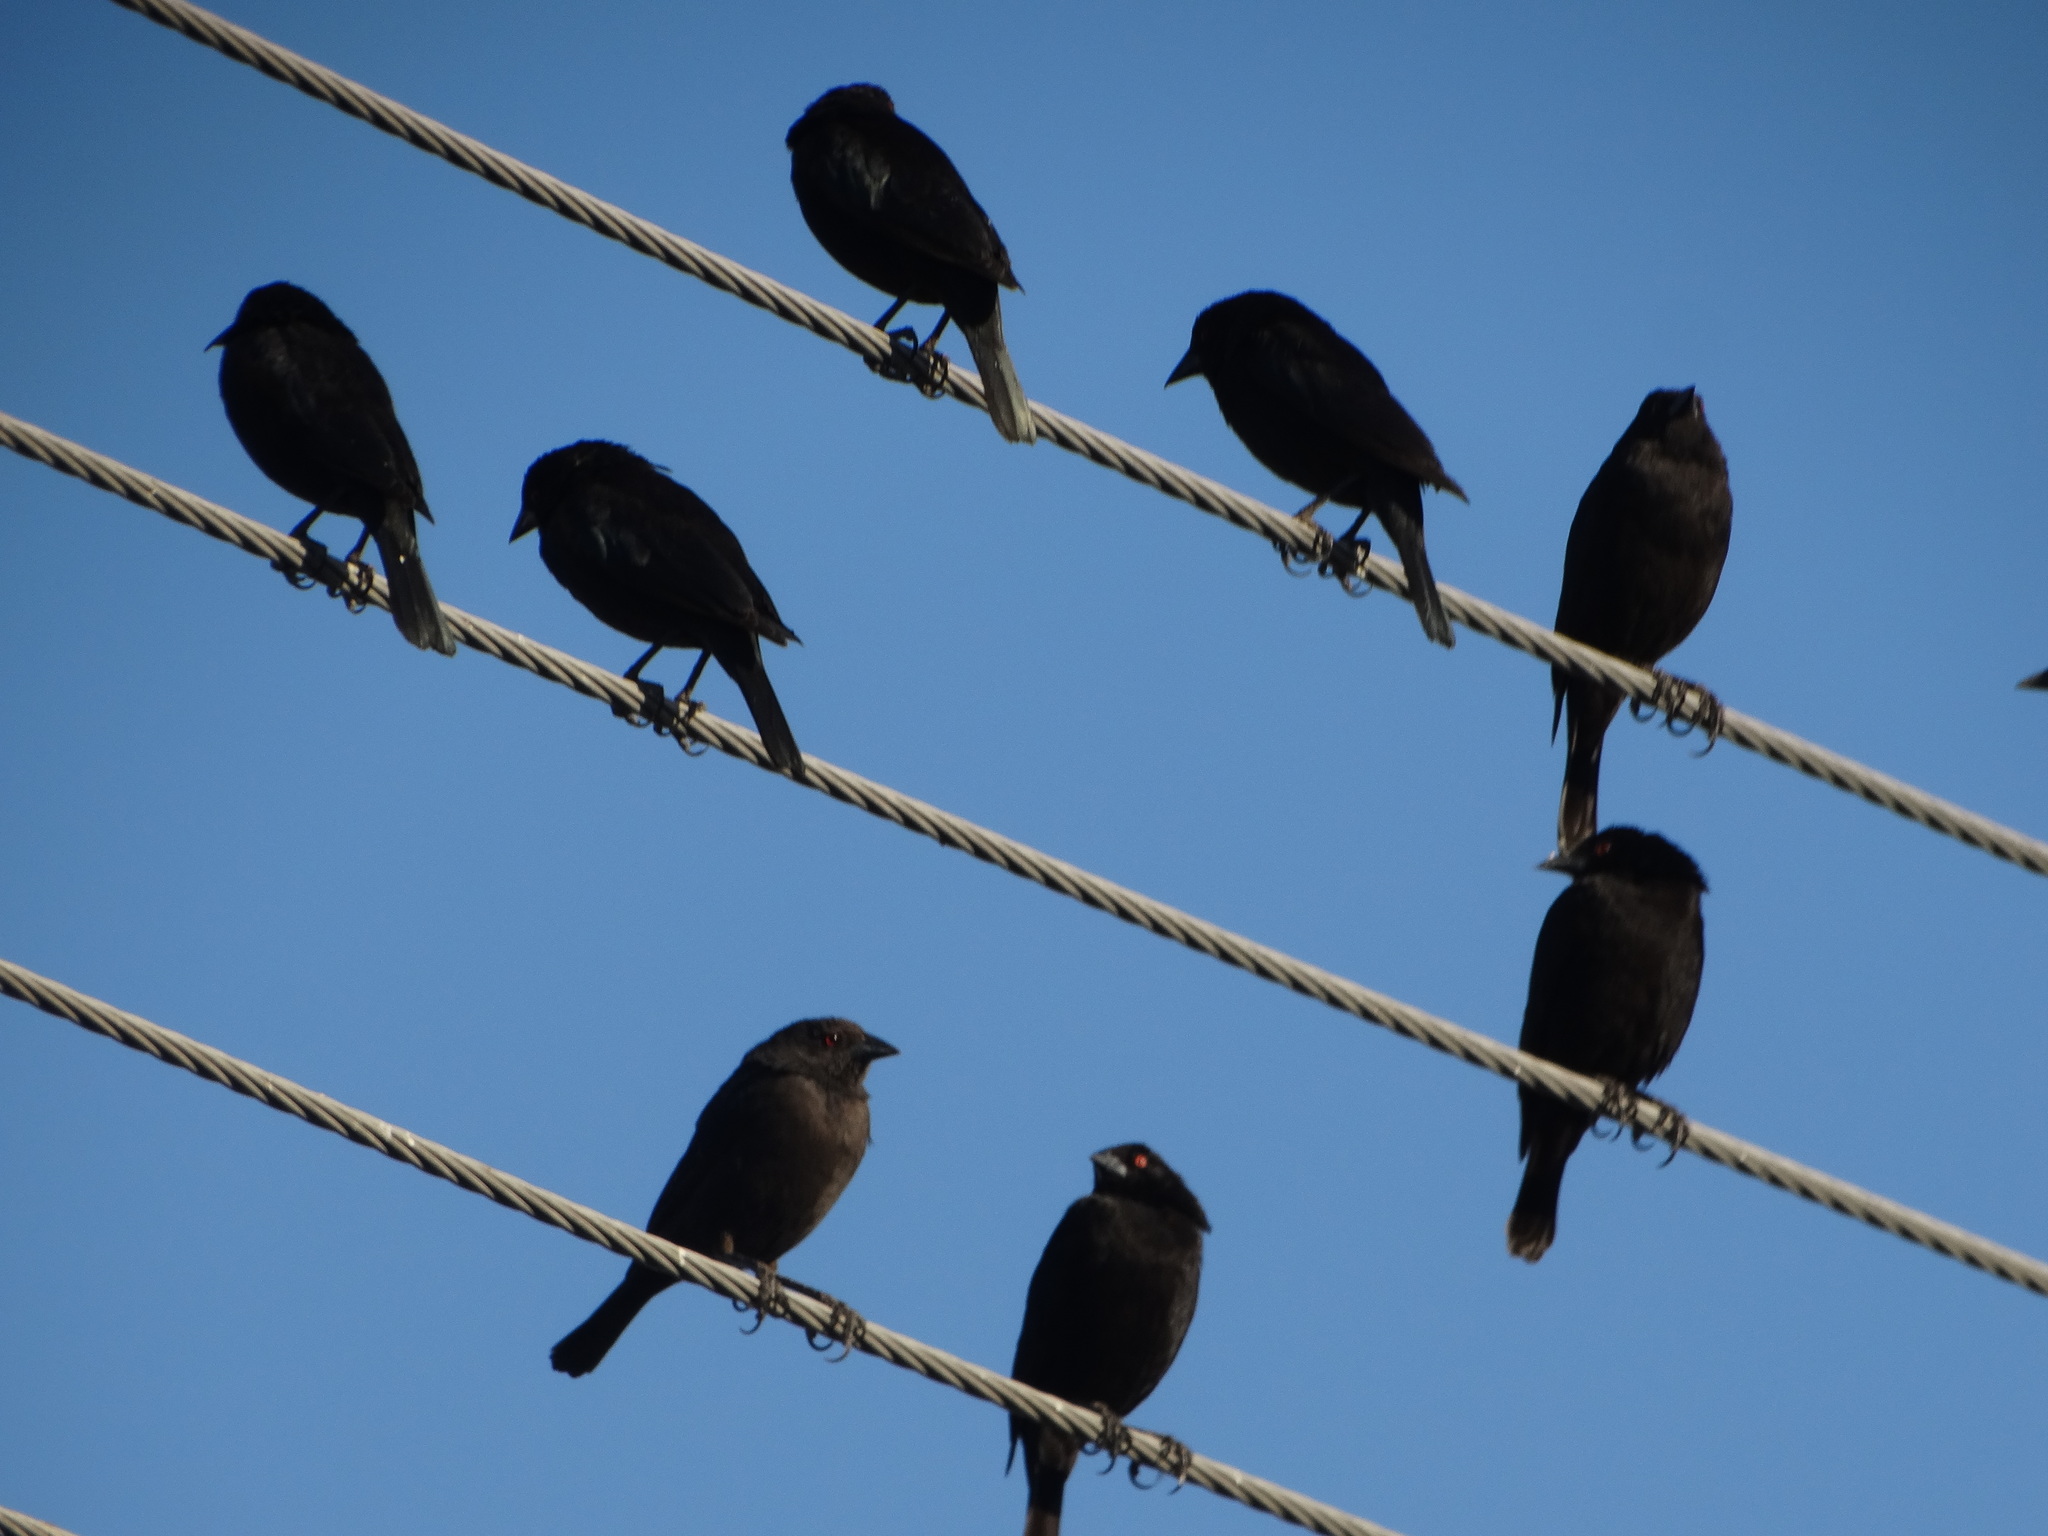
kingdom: Animalia
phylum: Chordata
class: Aves
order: Passeriformes
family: Icteridae
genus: Molothrus
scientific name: Molothrus aeneus
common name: Bronzed cowbird
